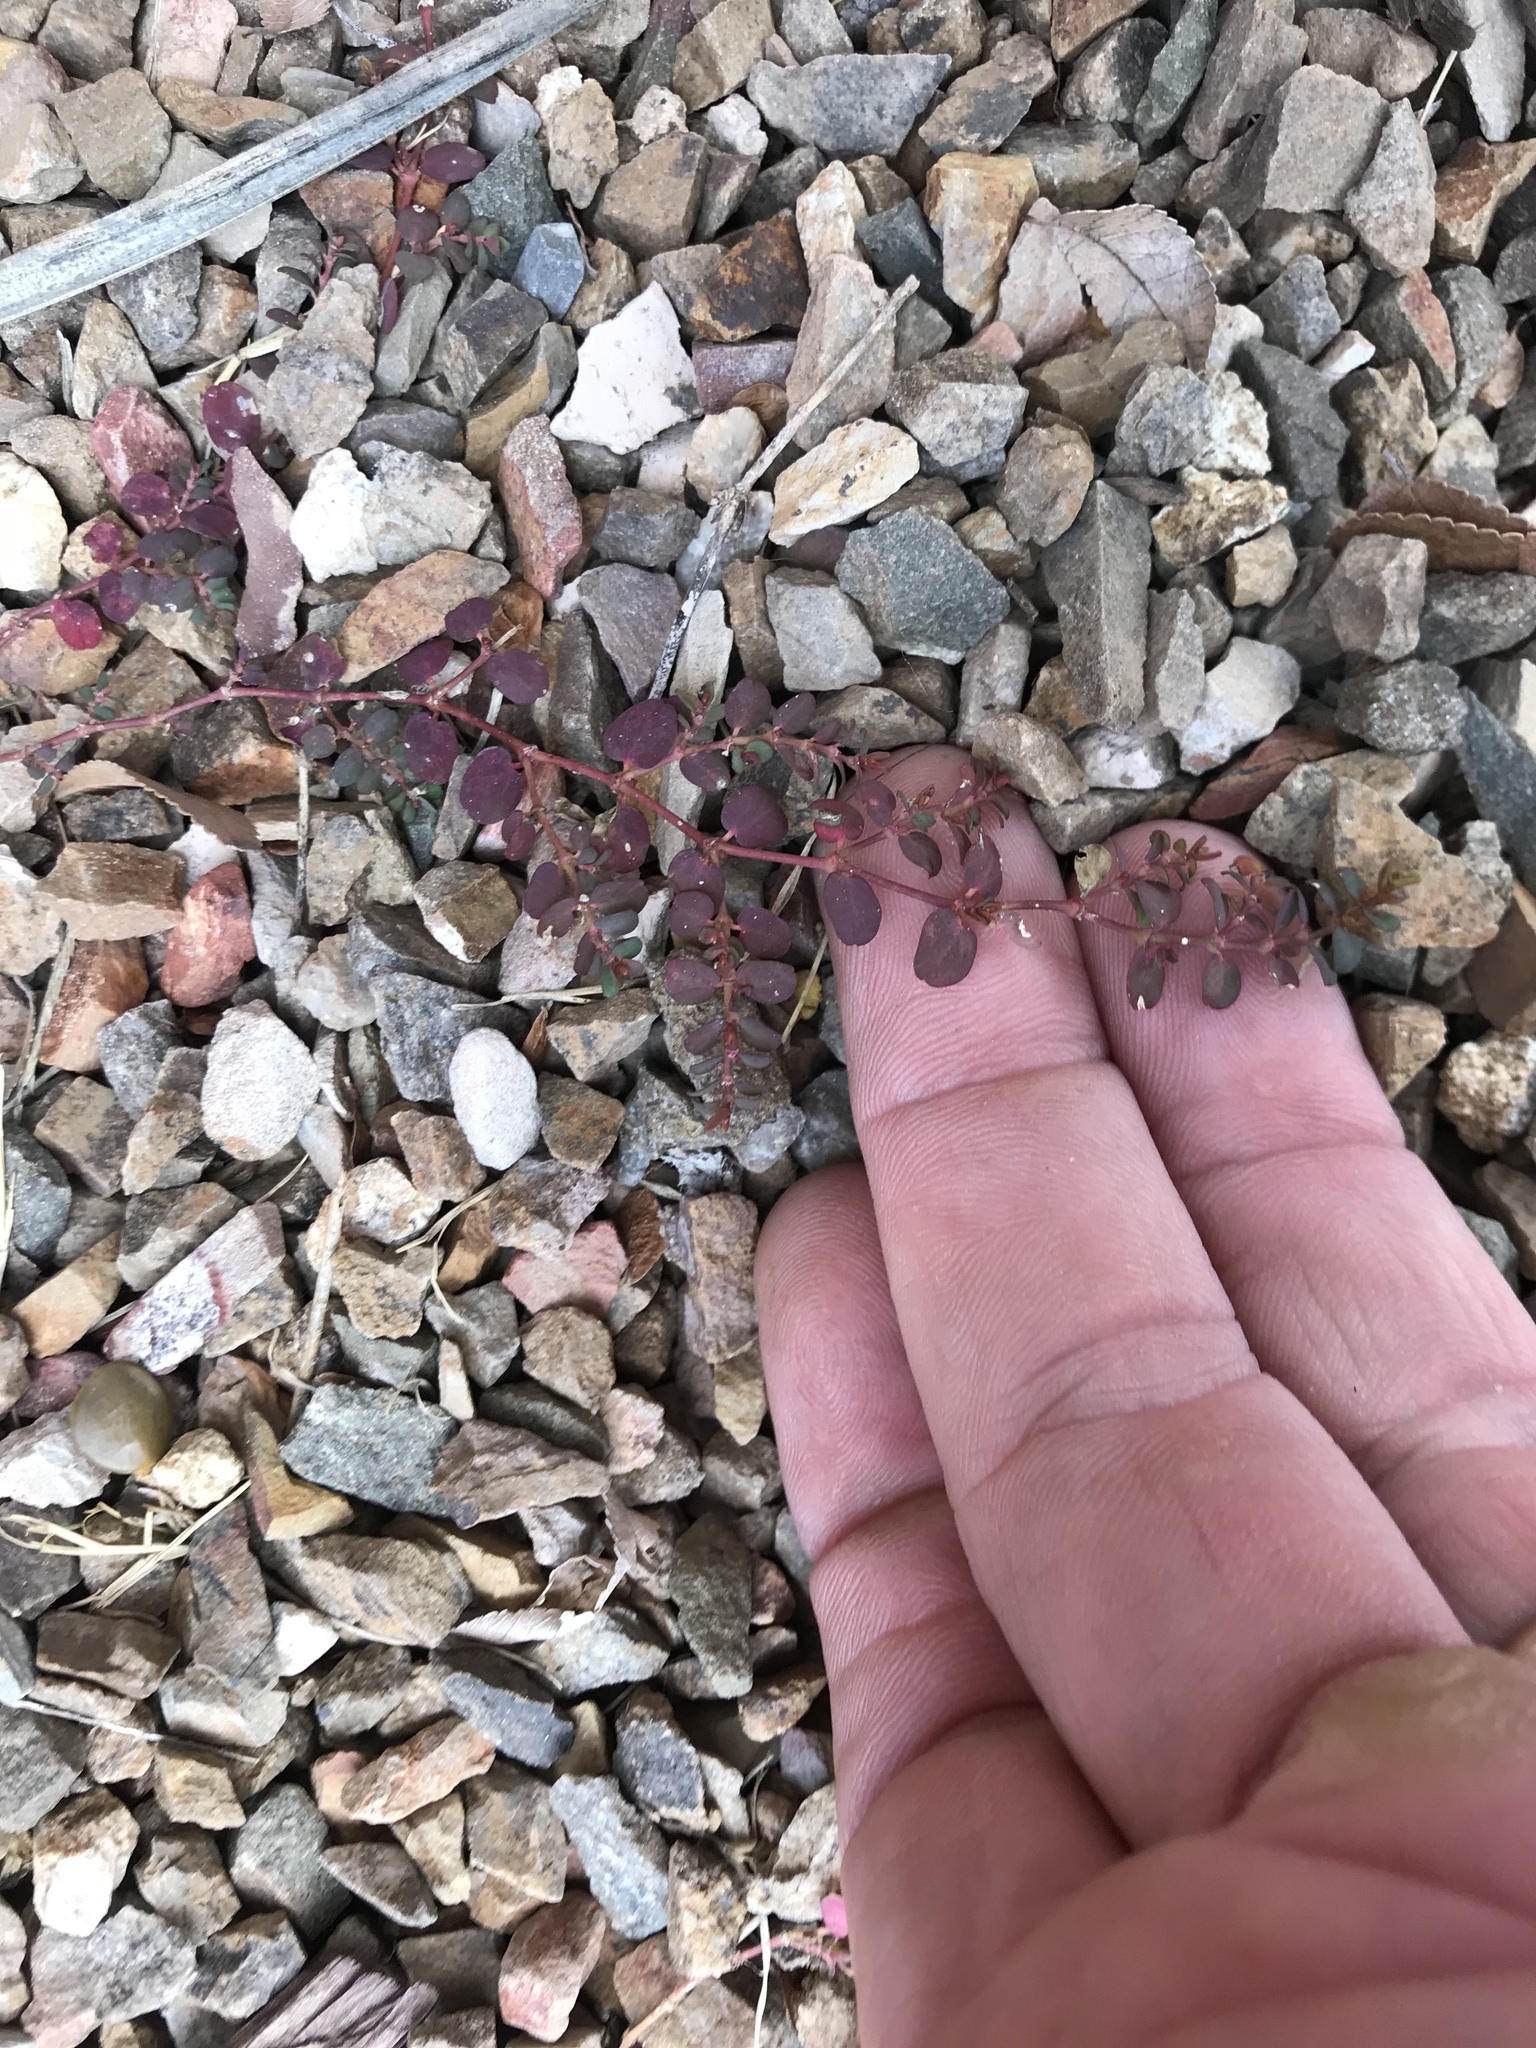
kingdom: Plantae
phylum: Tracheophyta
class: Magnoliopsida
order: Malpighiales
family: Euphorbiaceae
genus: Euphorbia
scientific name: Euphorbia serpens
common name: Matted sandmat
